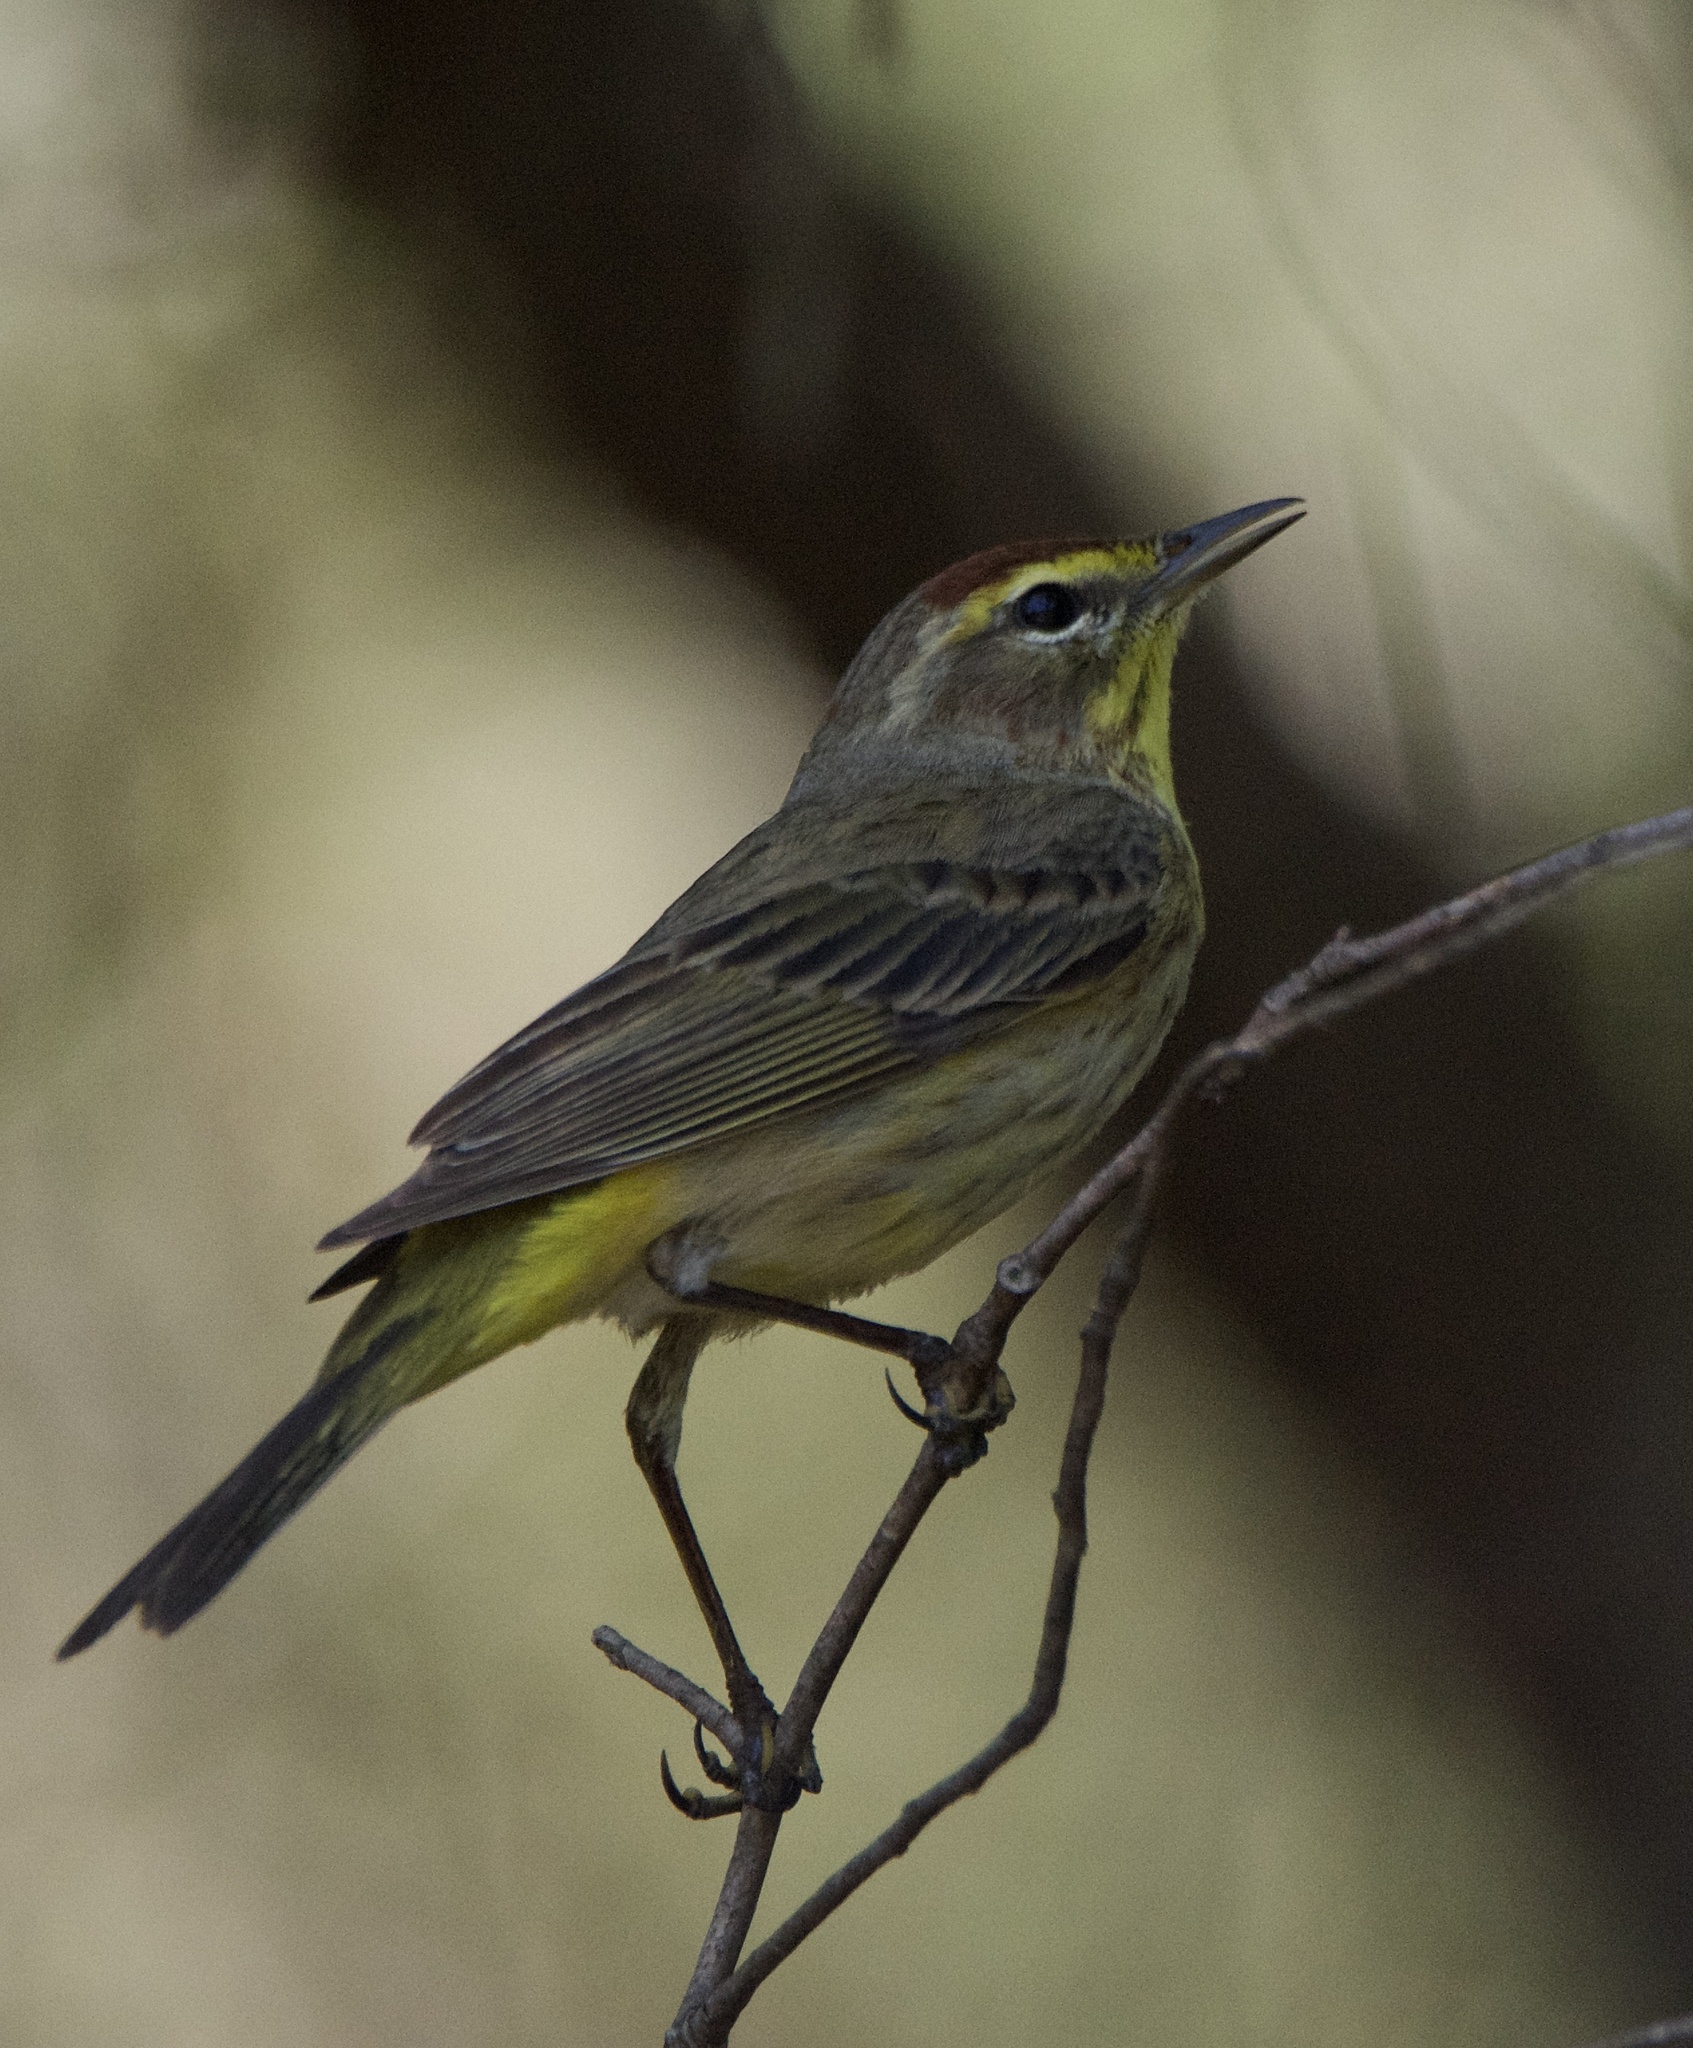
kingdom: Animalia
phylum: Chordata
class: Aves
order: Passeriformes
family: Parulidae
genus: Setophaga
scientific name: Setophaga palmarum
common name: Palm warbler
